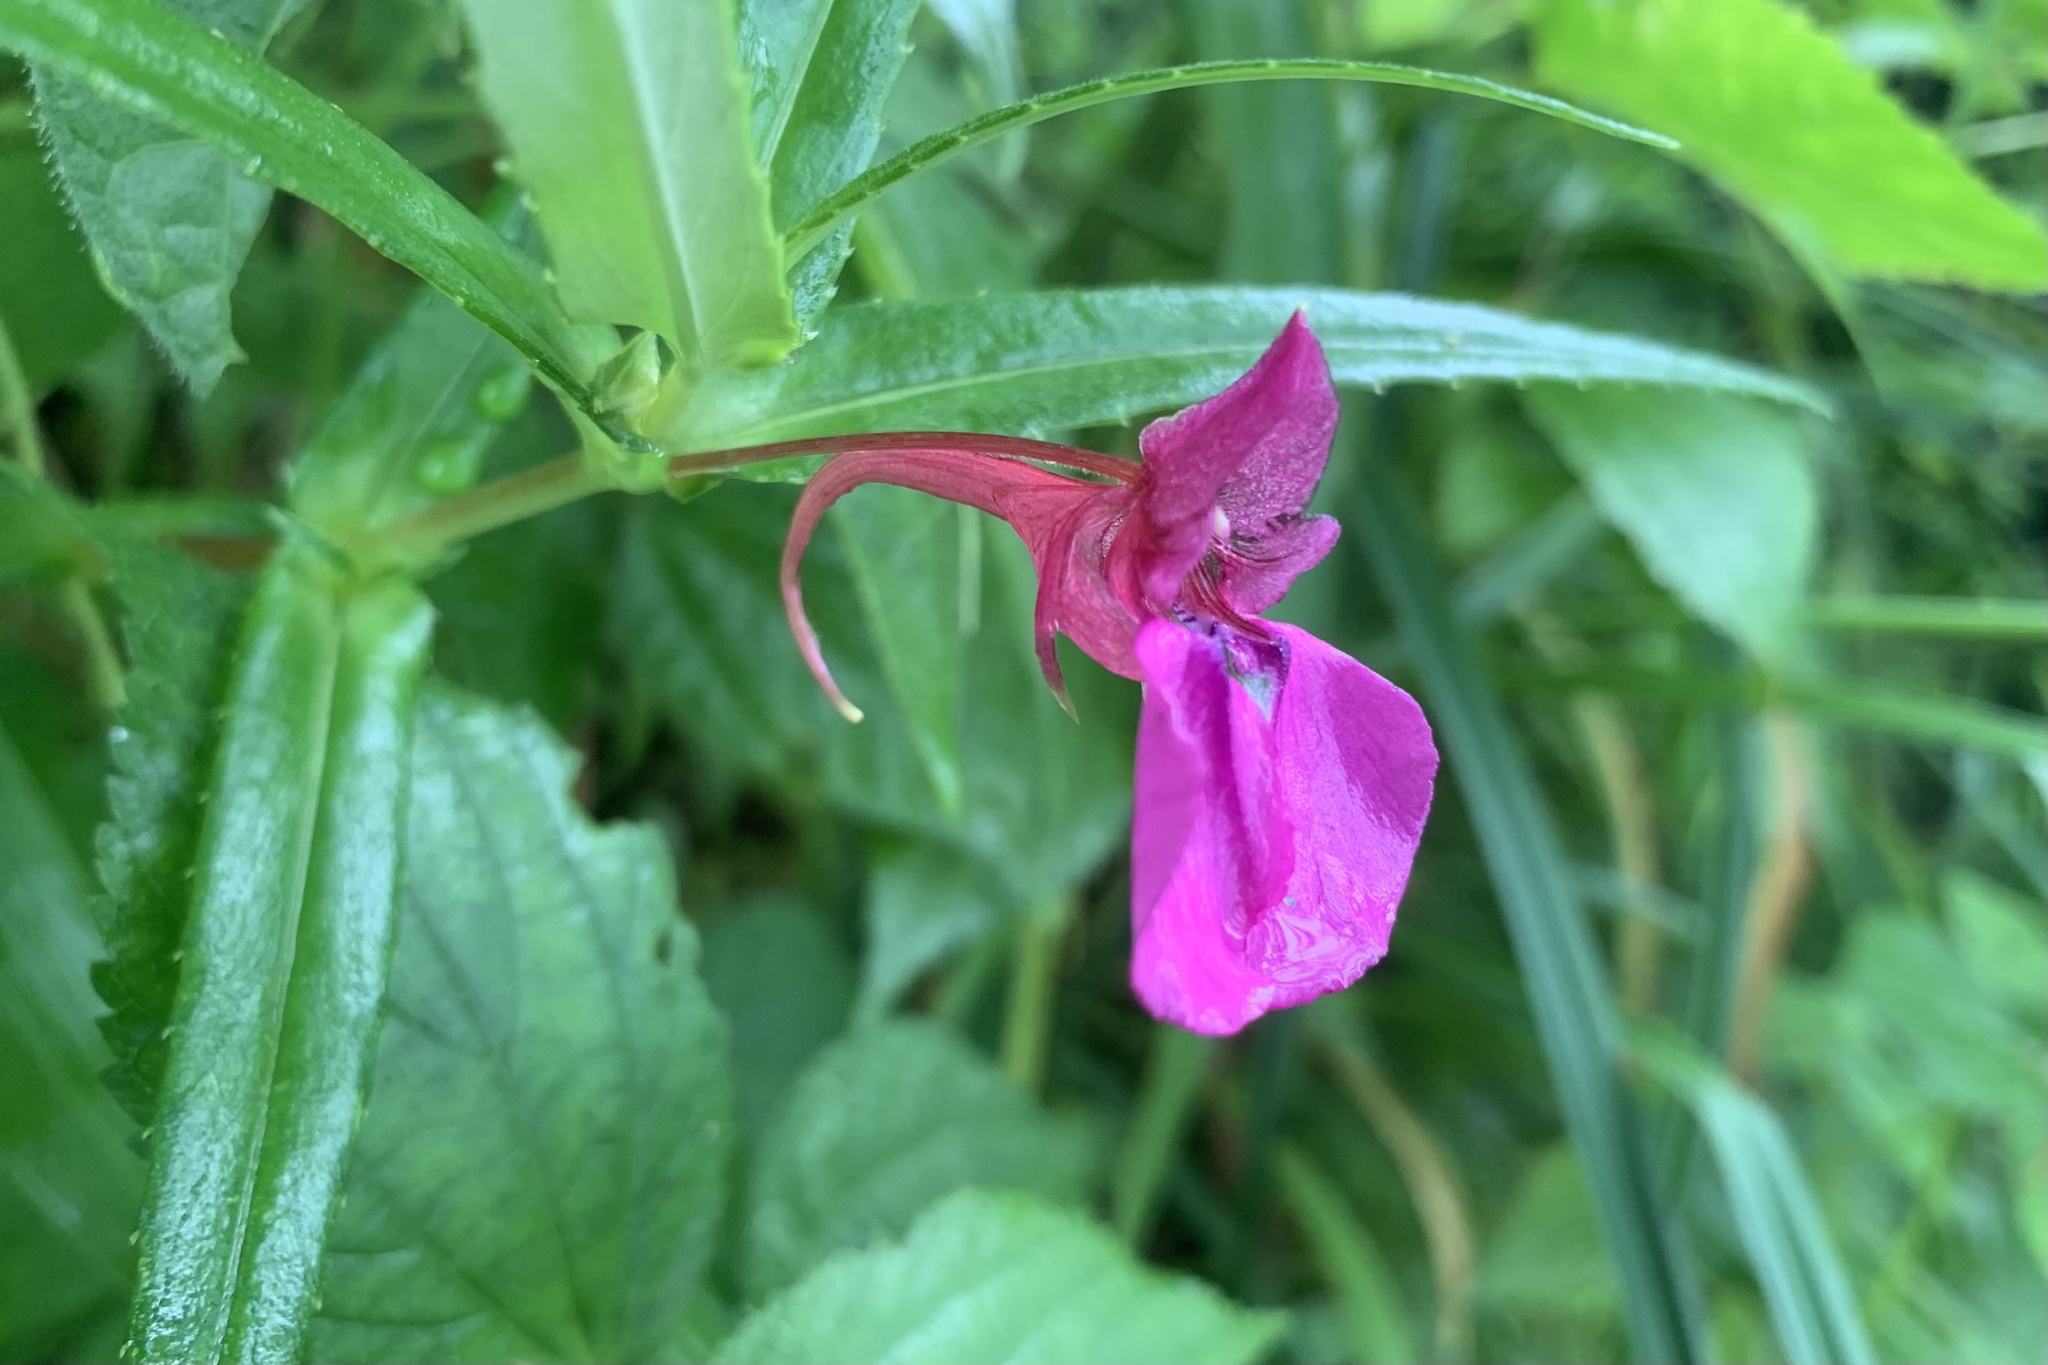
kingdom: Plantae
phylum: Tracheophyta
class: Magnoliopsida
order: Ericales
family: Balsaminaceae
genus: Impatiens
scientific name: Impatiens chinensis
